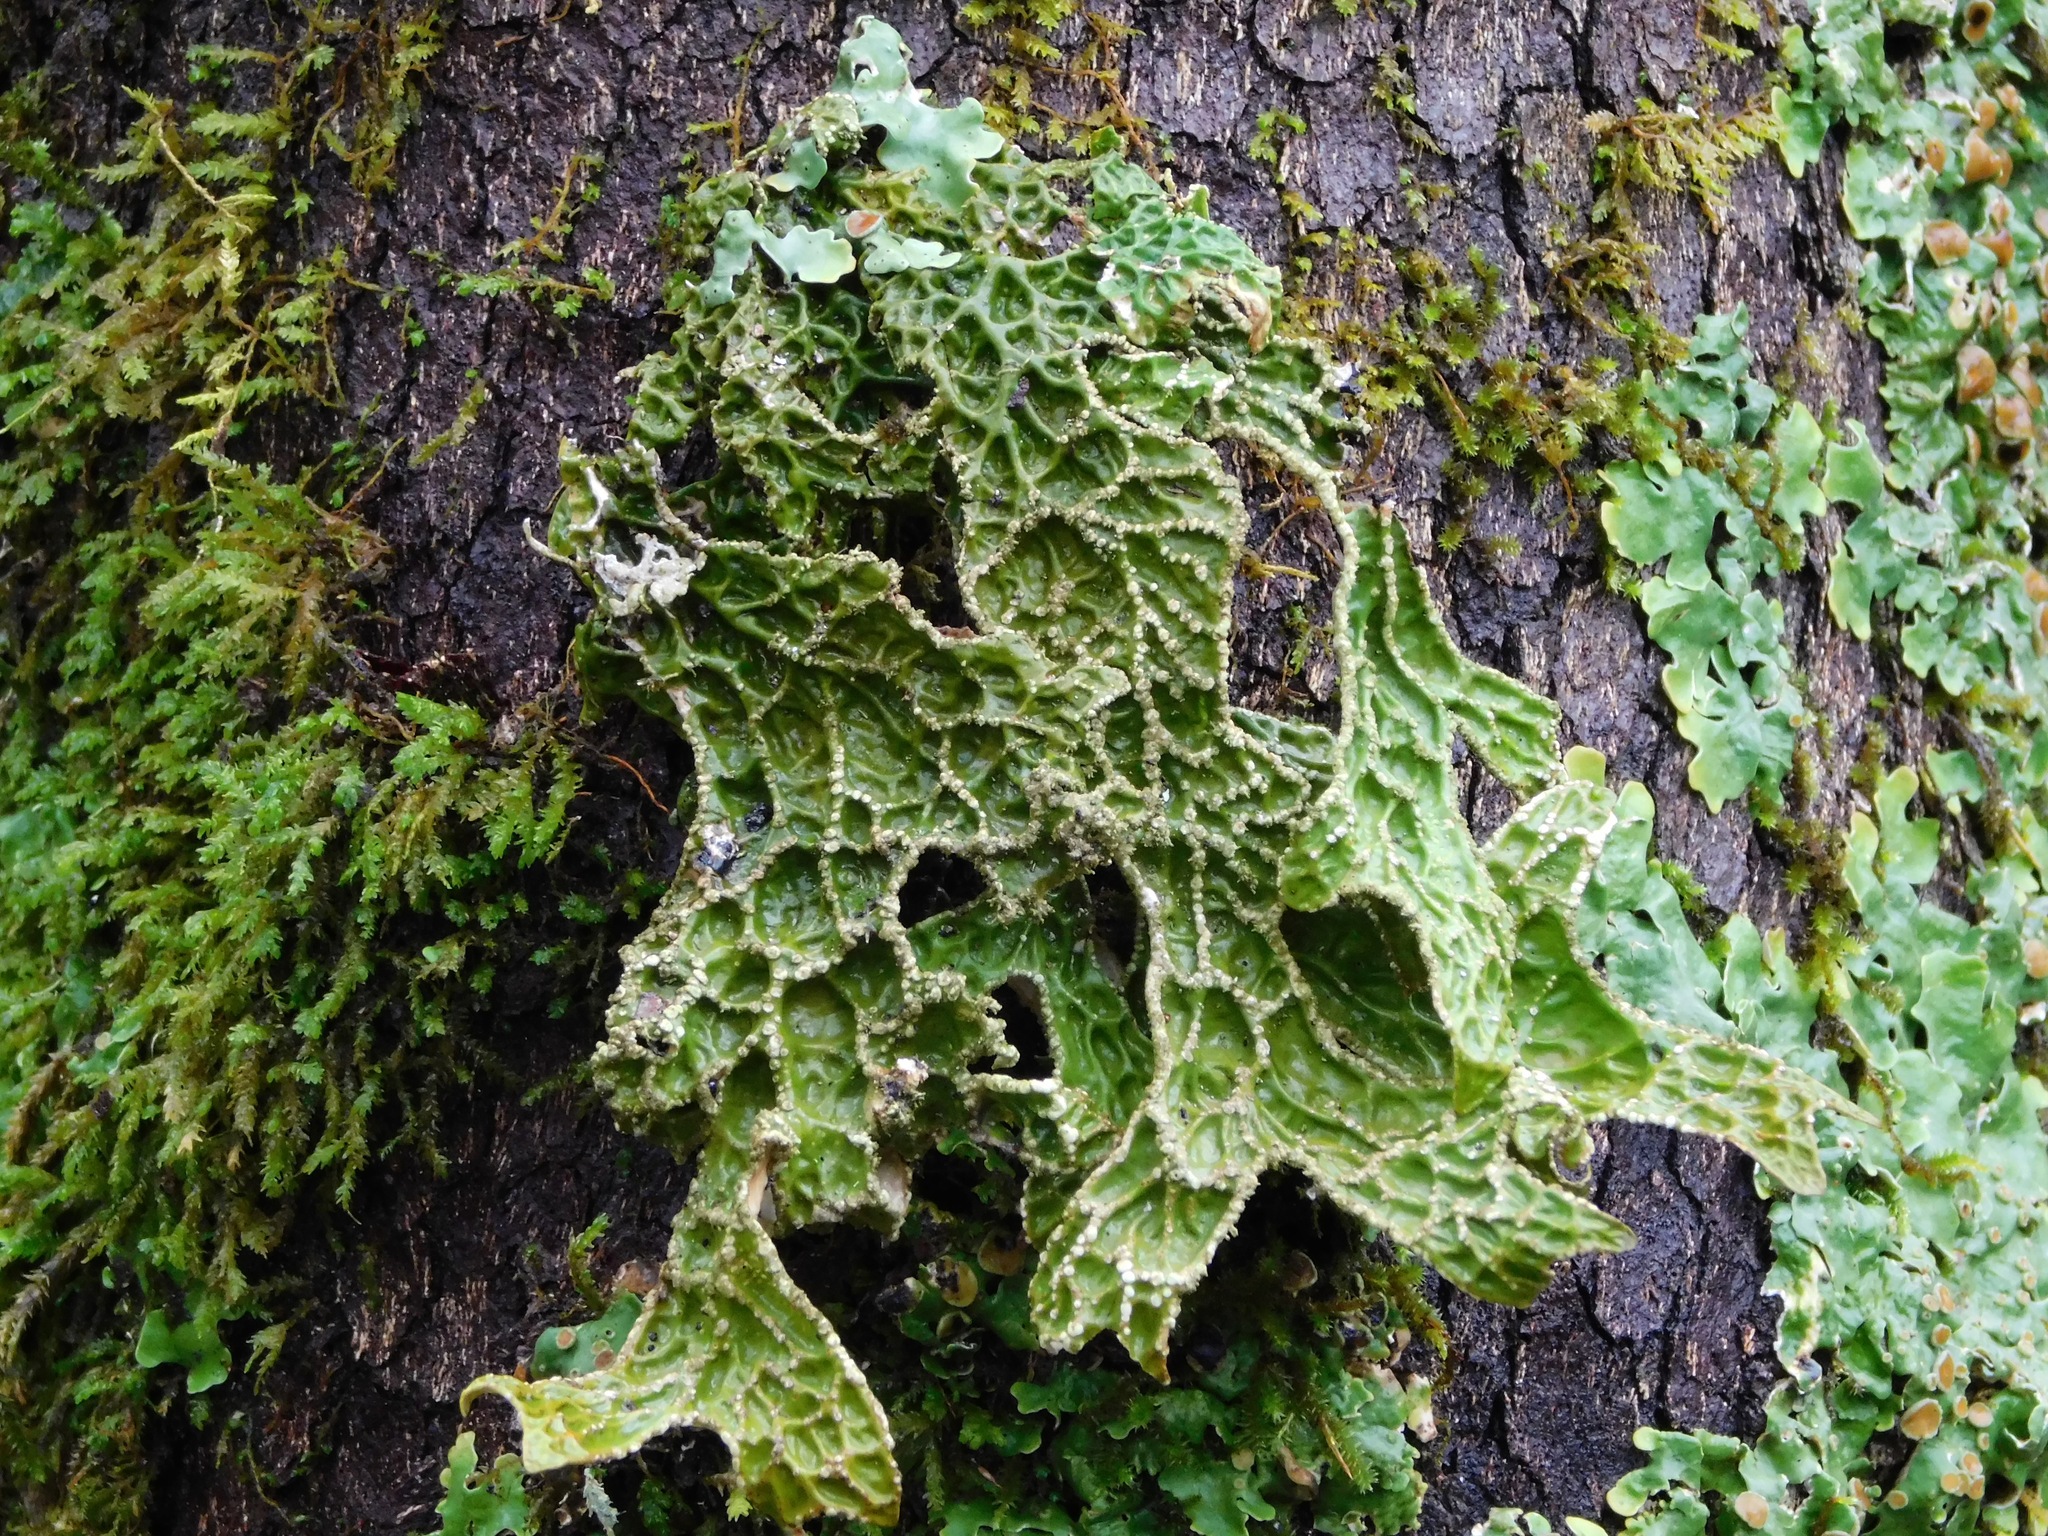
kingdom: Fungi
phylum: Ascomycota
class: Lecanoromycetes
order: Peltigerales
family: Lobariaceae
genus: Lobaria
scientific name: Lobaria pulmonaria
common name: Lungwort
